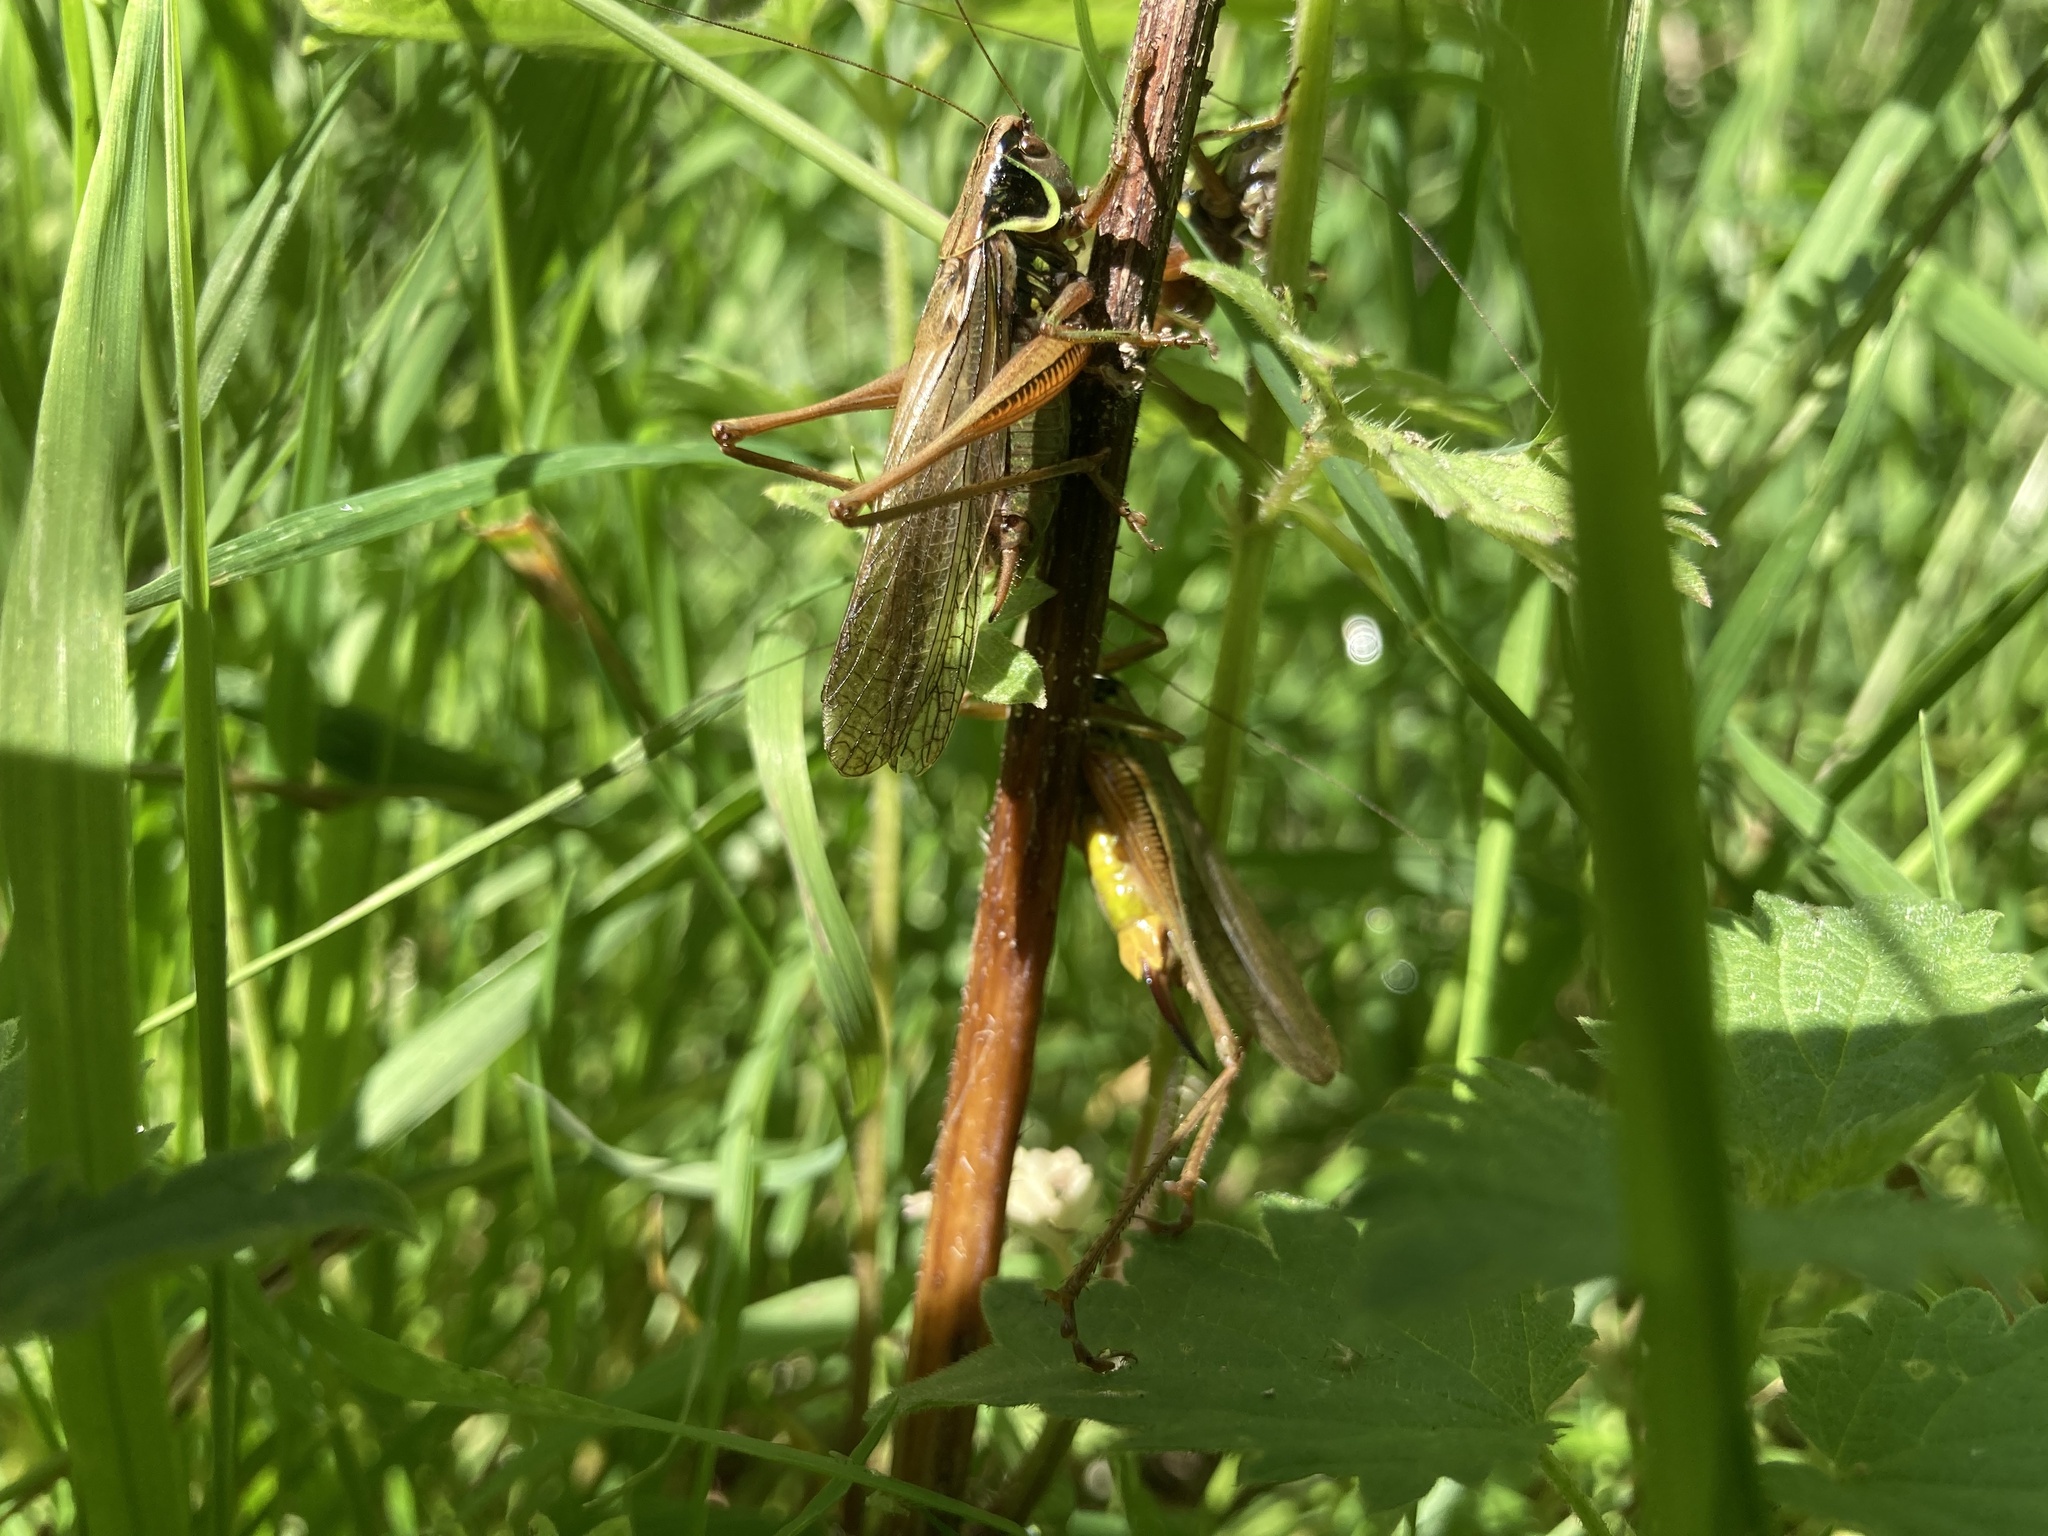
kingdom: Animalia
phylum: Arthropoda
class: Insecta
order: Orthoptera
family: Tettigoniidae
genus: Roeseliana
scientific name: Roeseliana roeselii
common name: Roesel's bush cricket
